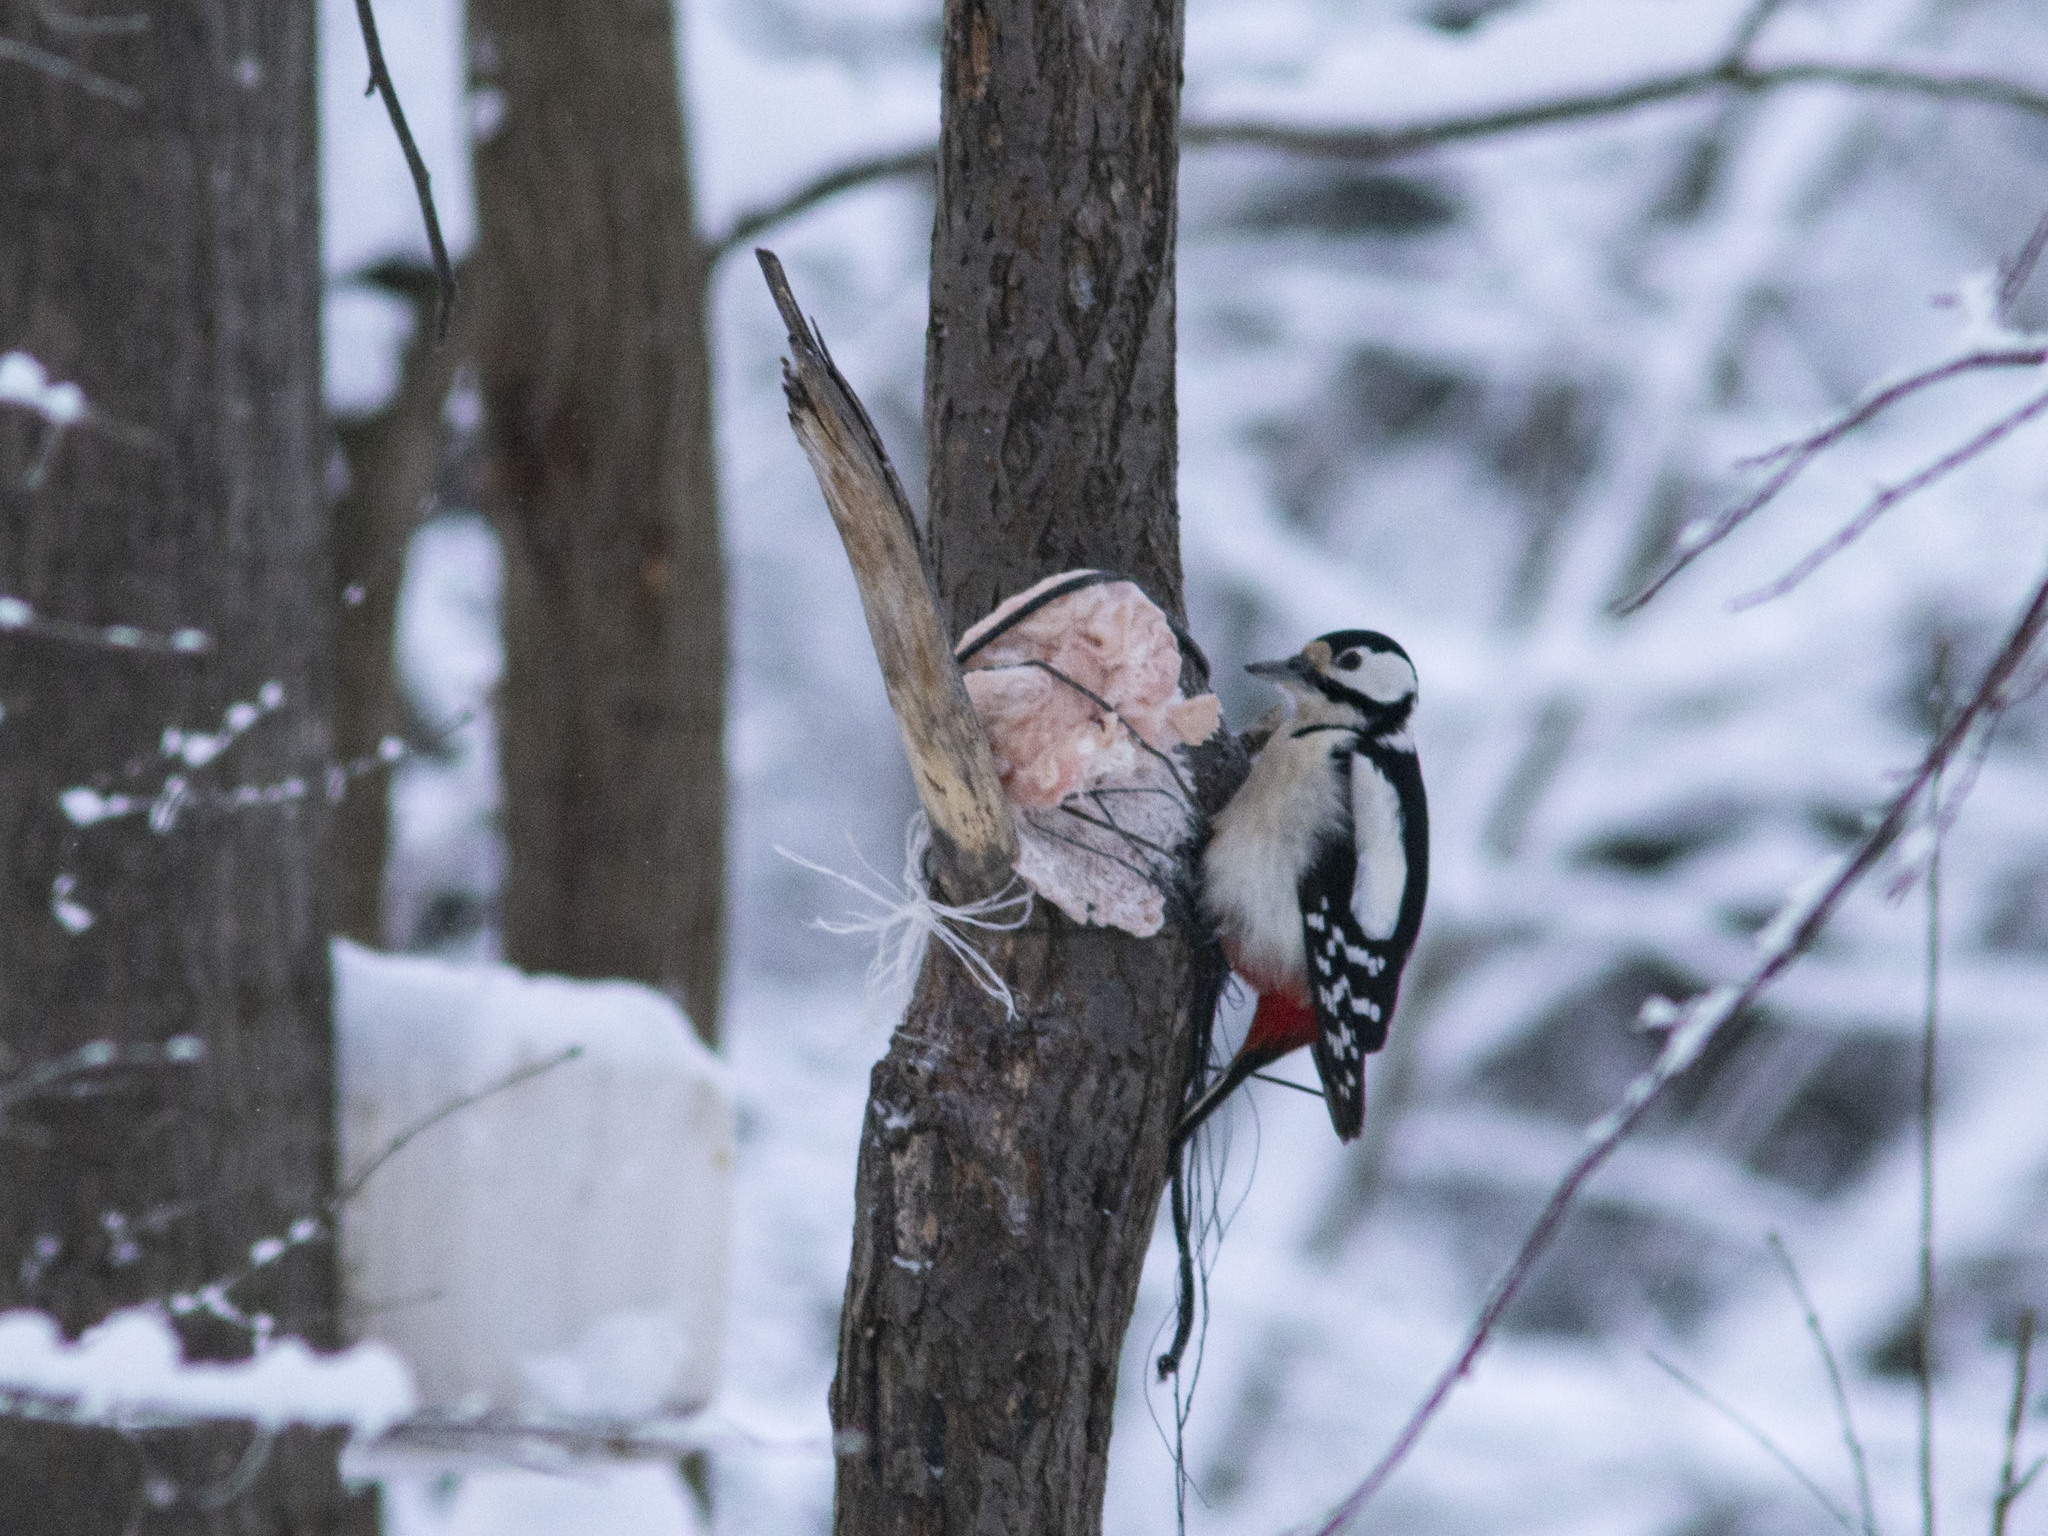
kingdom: Animalia
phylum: Chordata
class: Aves
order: Piciformes
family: Picidae
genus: Dendrocopos
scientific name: Dendrocopos major
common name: Great spotted woodpecker
